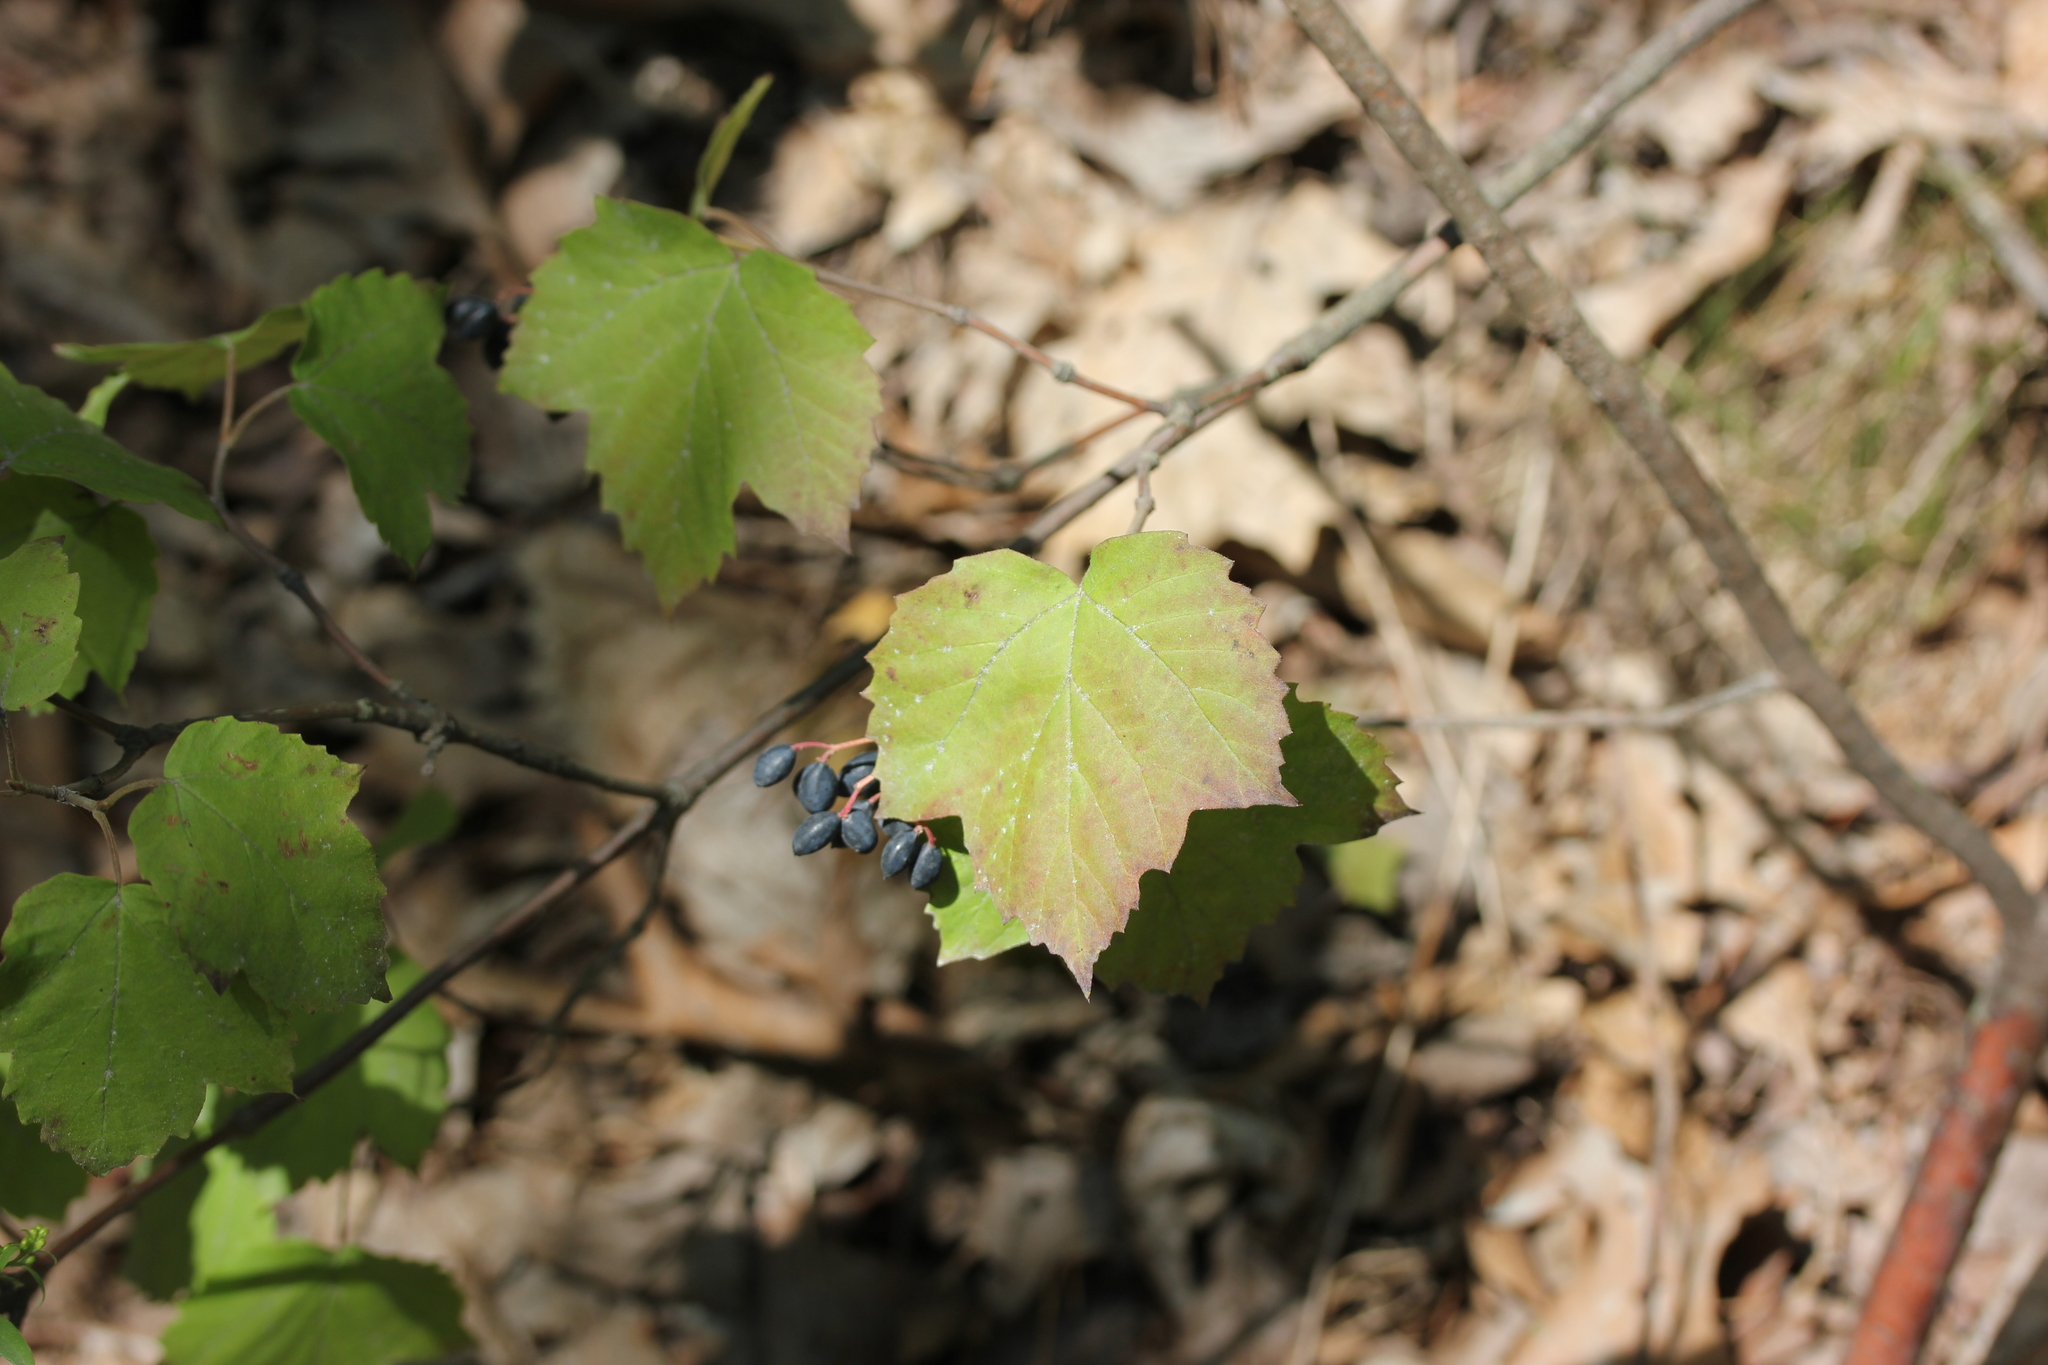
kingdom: Plantae
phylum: Tracheophyta
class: Magnoliopsida
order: Dipsacales
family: Viburnaceae
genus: Viburnum
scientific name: Viburnum acerifolium
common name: Dockmackie
